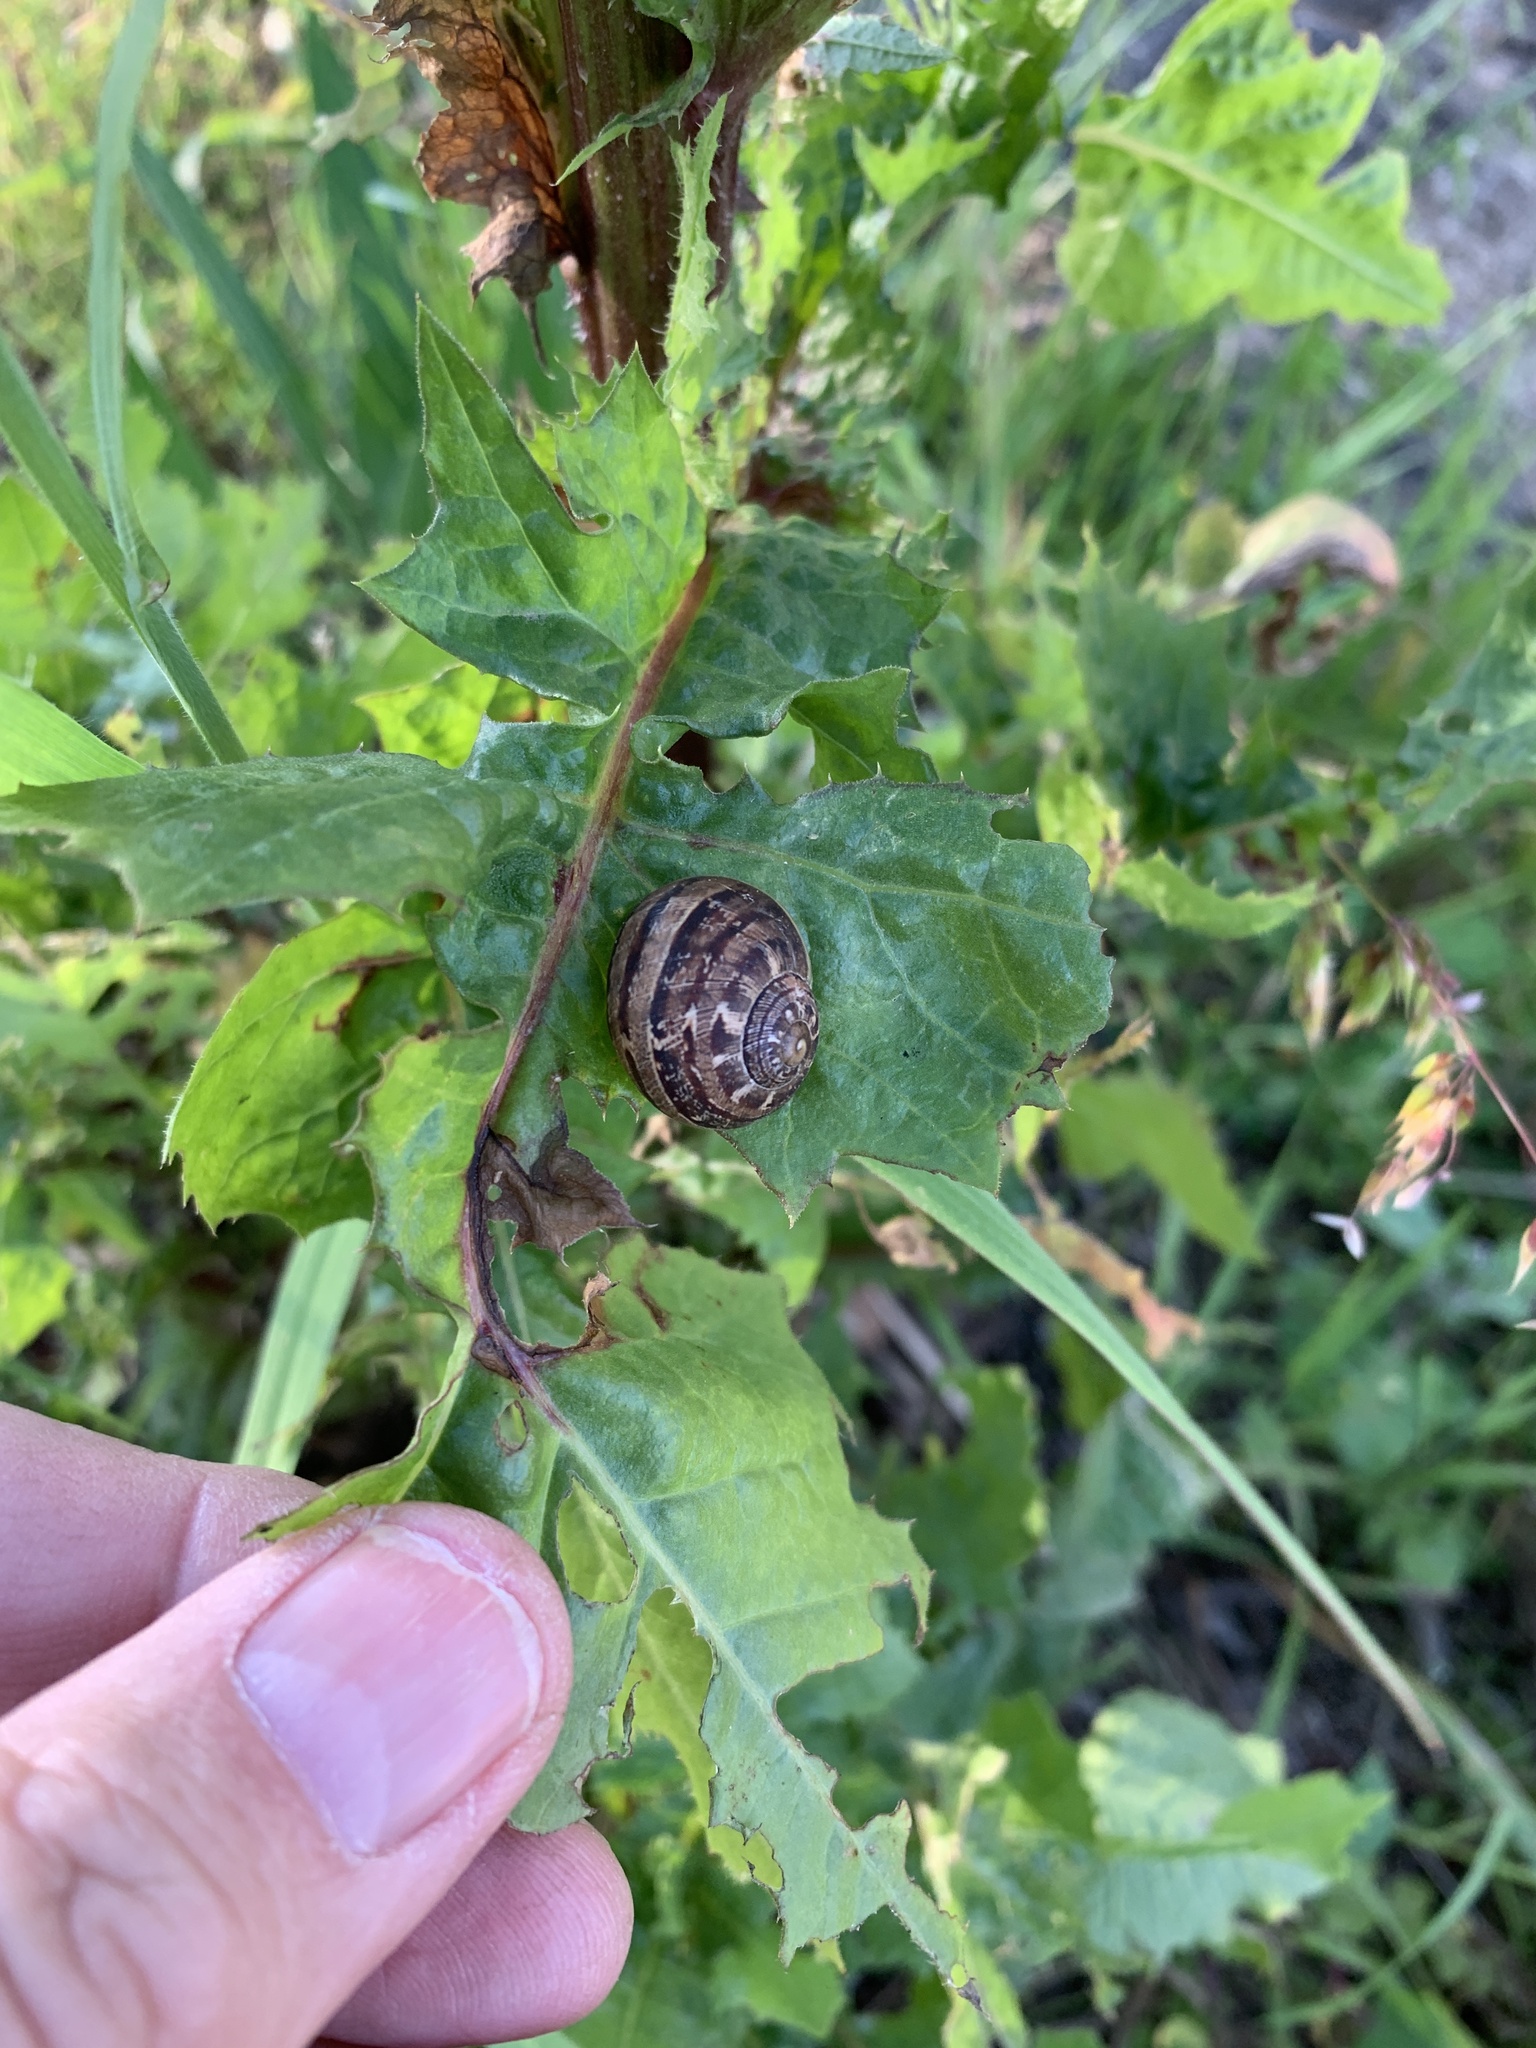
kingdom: Animalia
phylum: Mollusca
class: Gastropoda
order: Stylommatophora
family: Helicidae
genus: Cornu
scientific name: Cornu aspersum
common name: Brown garden snail
